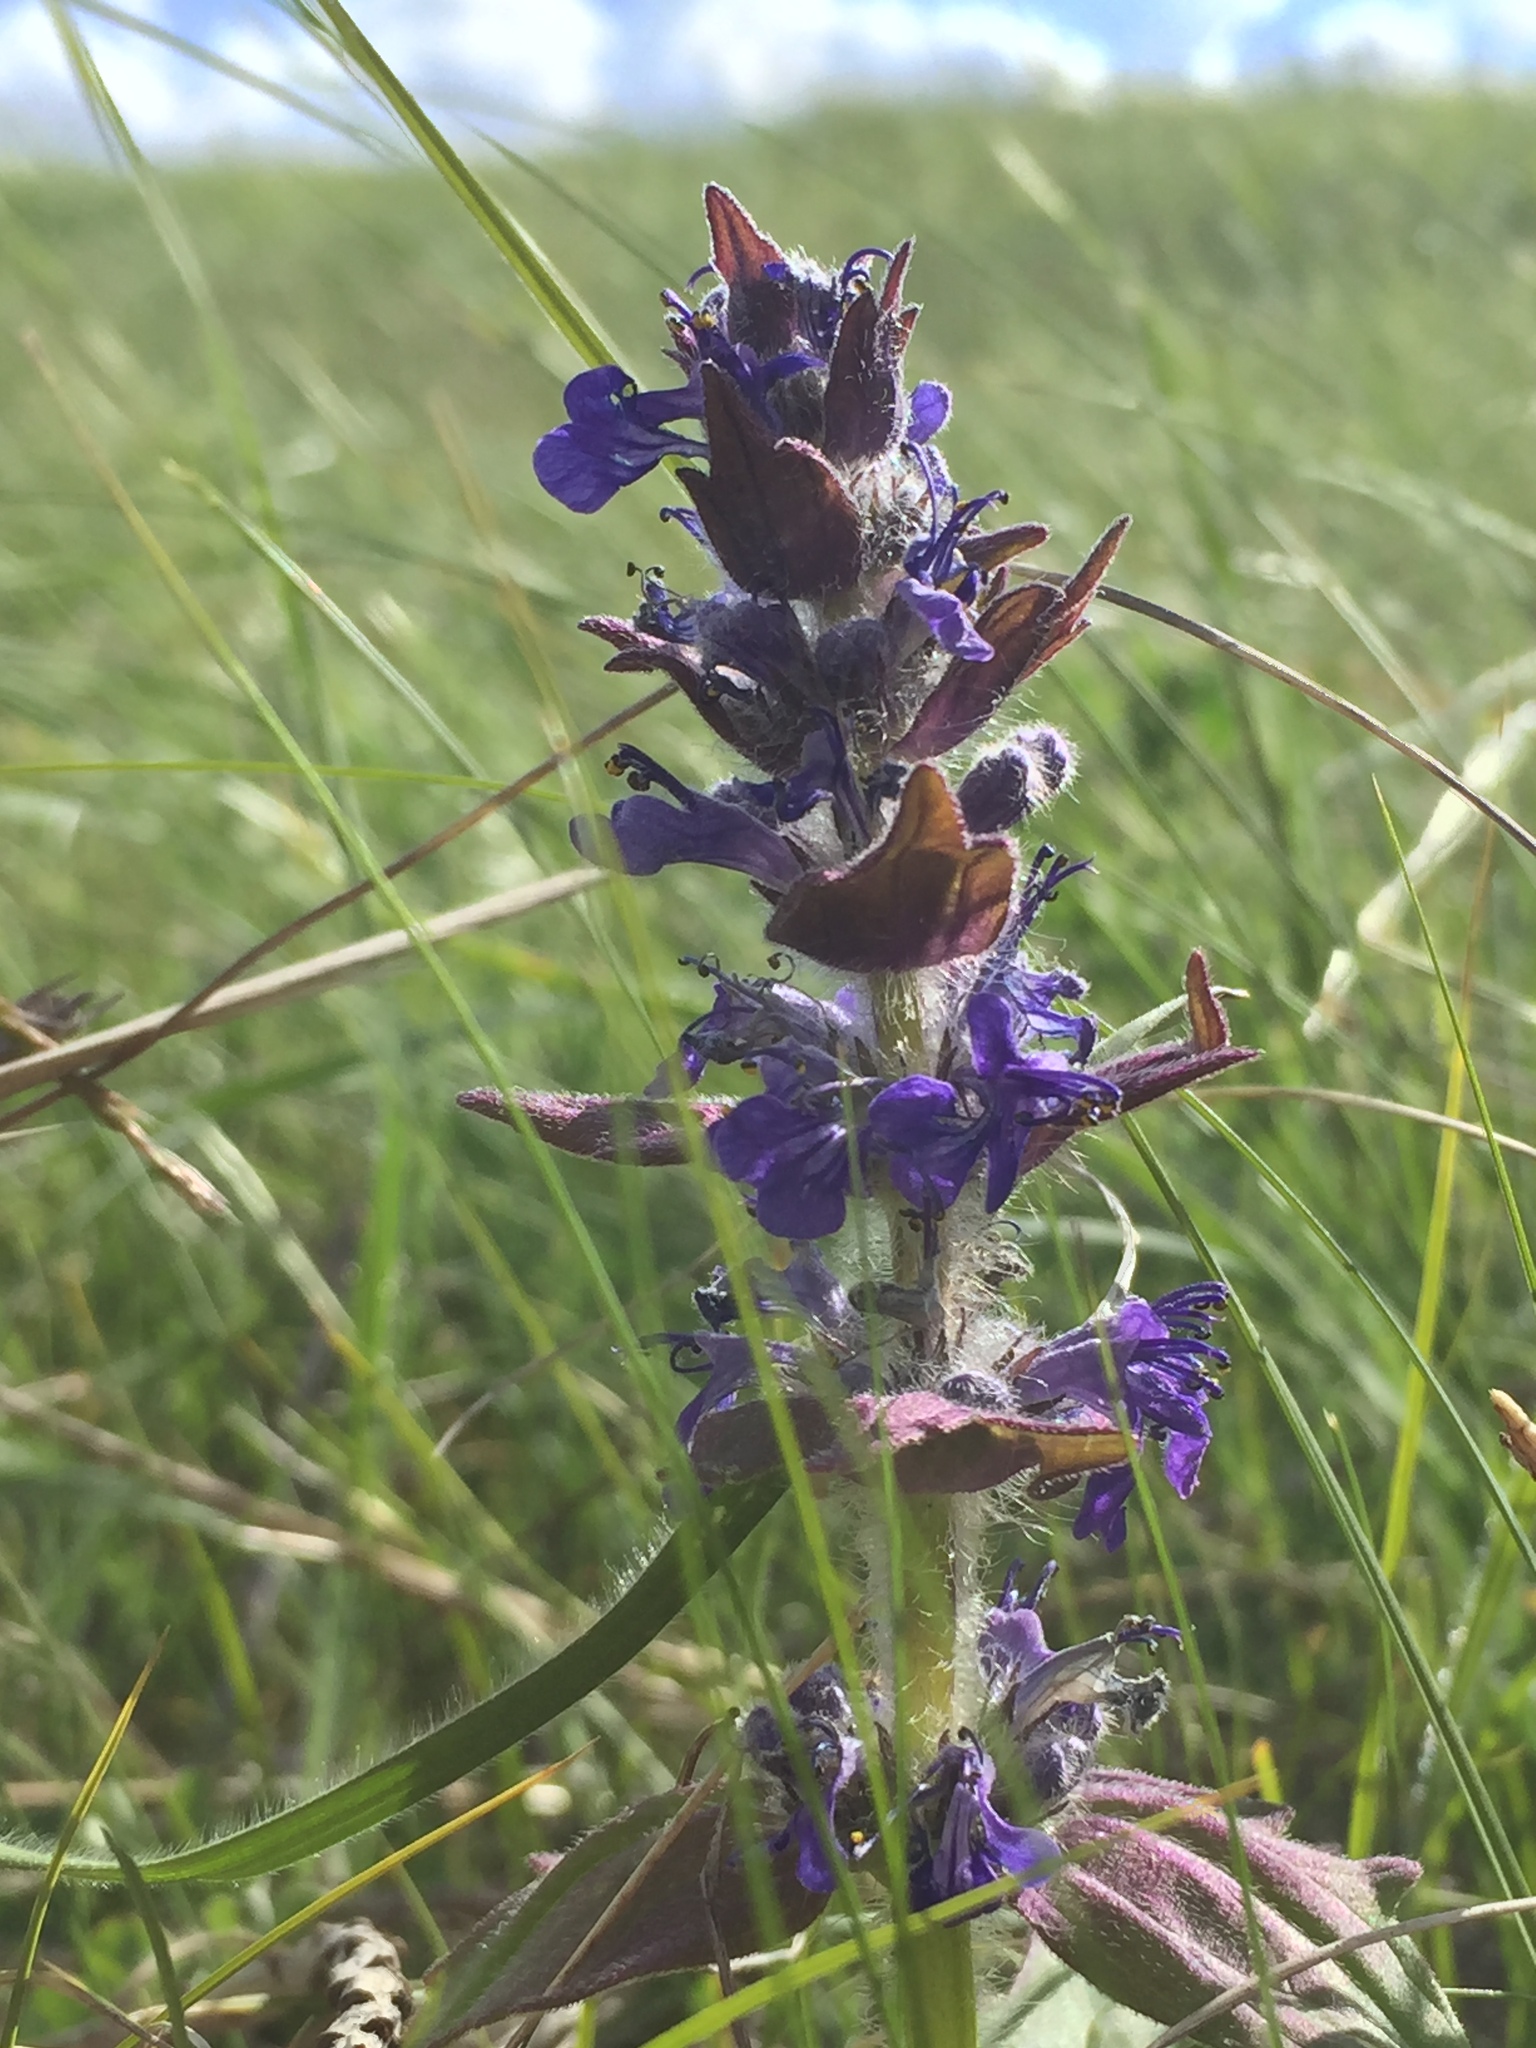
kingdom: Plantae
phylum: Tracheophyta
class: Magnoliopsida
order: Lamiales
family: Lamiaceae
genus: Ajuga
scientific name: Ajuga genevensis
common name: Blue bugle
